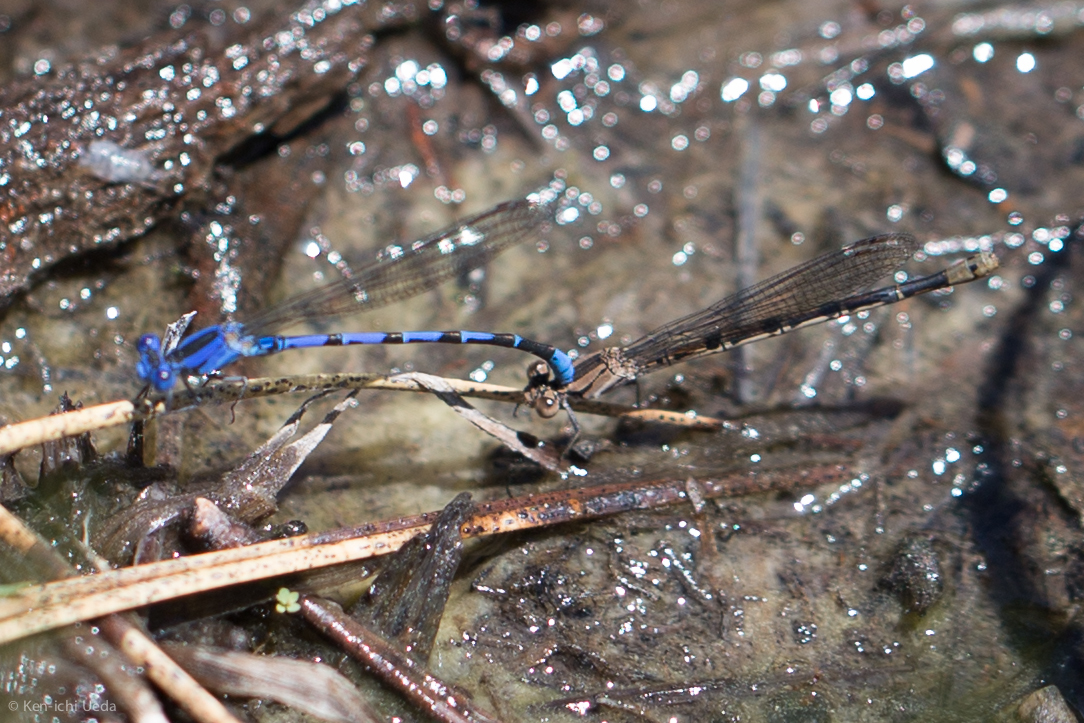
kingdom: Animalia
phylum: Arthropoda
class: Insecta
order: Odonata
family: Coenagrionidae
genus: Argia
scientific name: Argia vivida
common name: Vivid dancer
